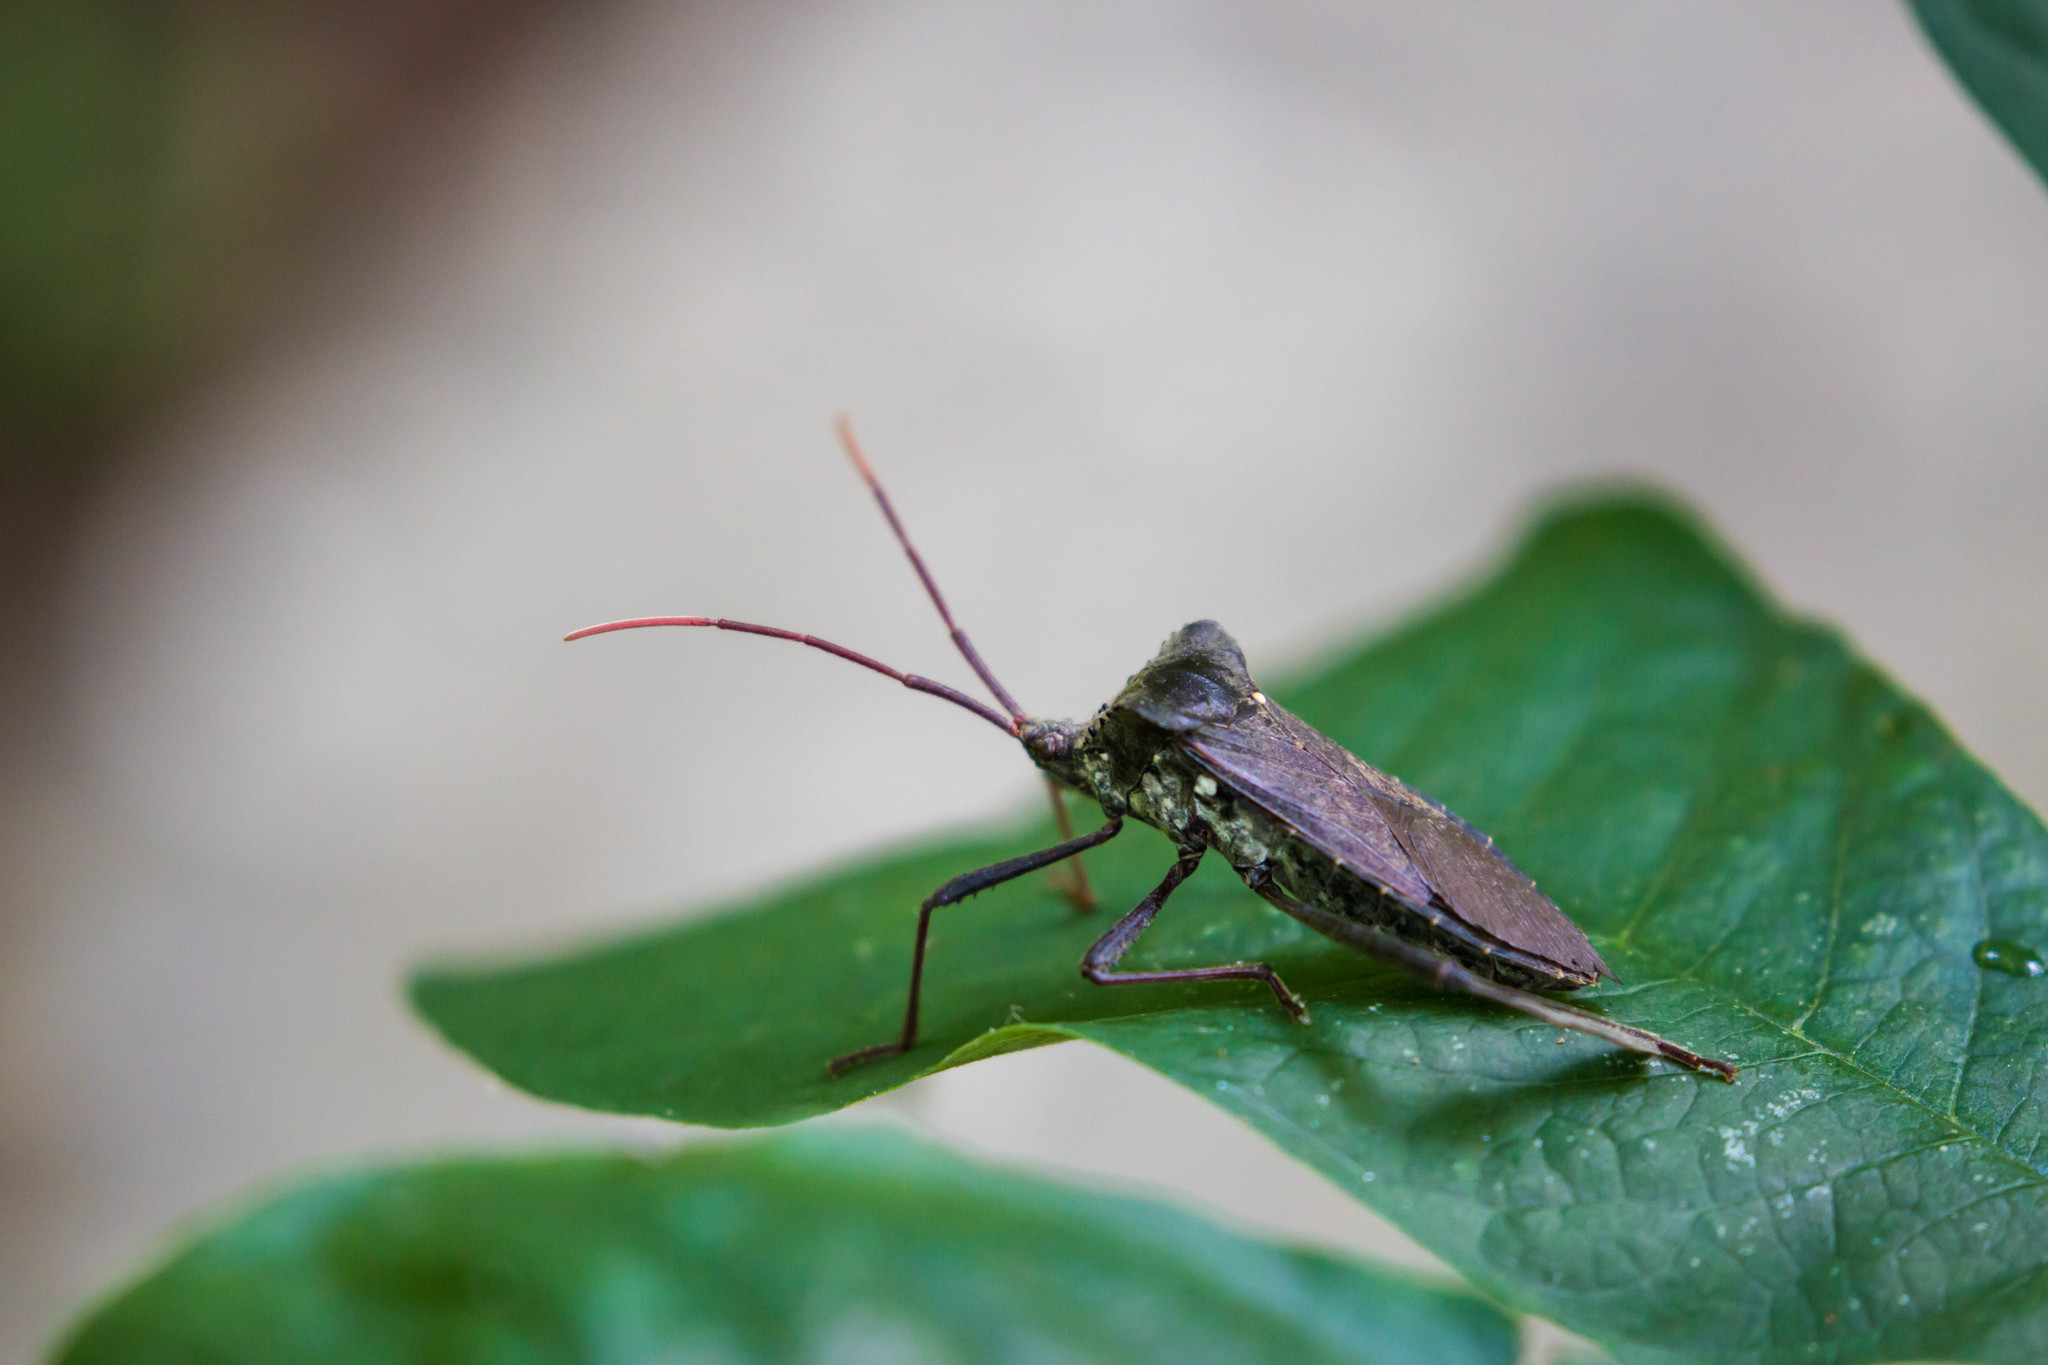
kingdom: Animalia
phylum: Arthropoda
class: Insecta
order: Hemiptera
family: Coreidae
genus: Acanthocephala
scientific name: Acanthocephala declivis
